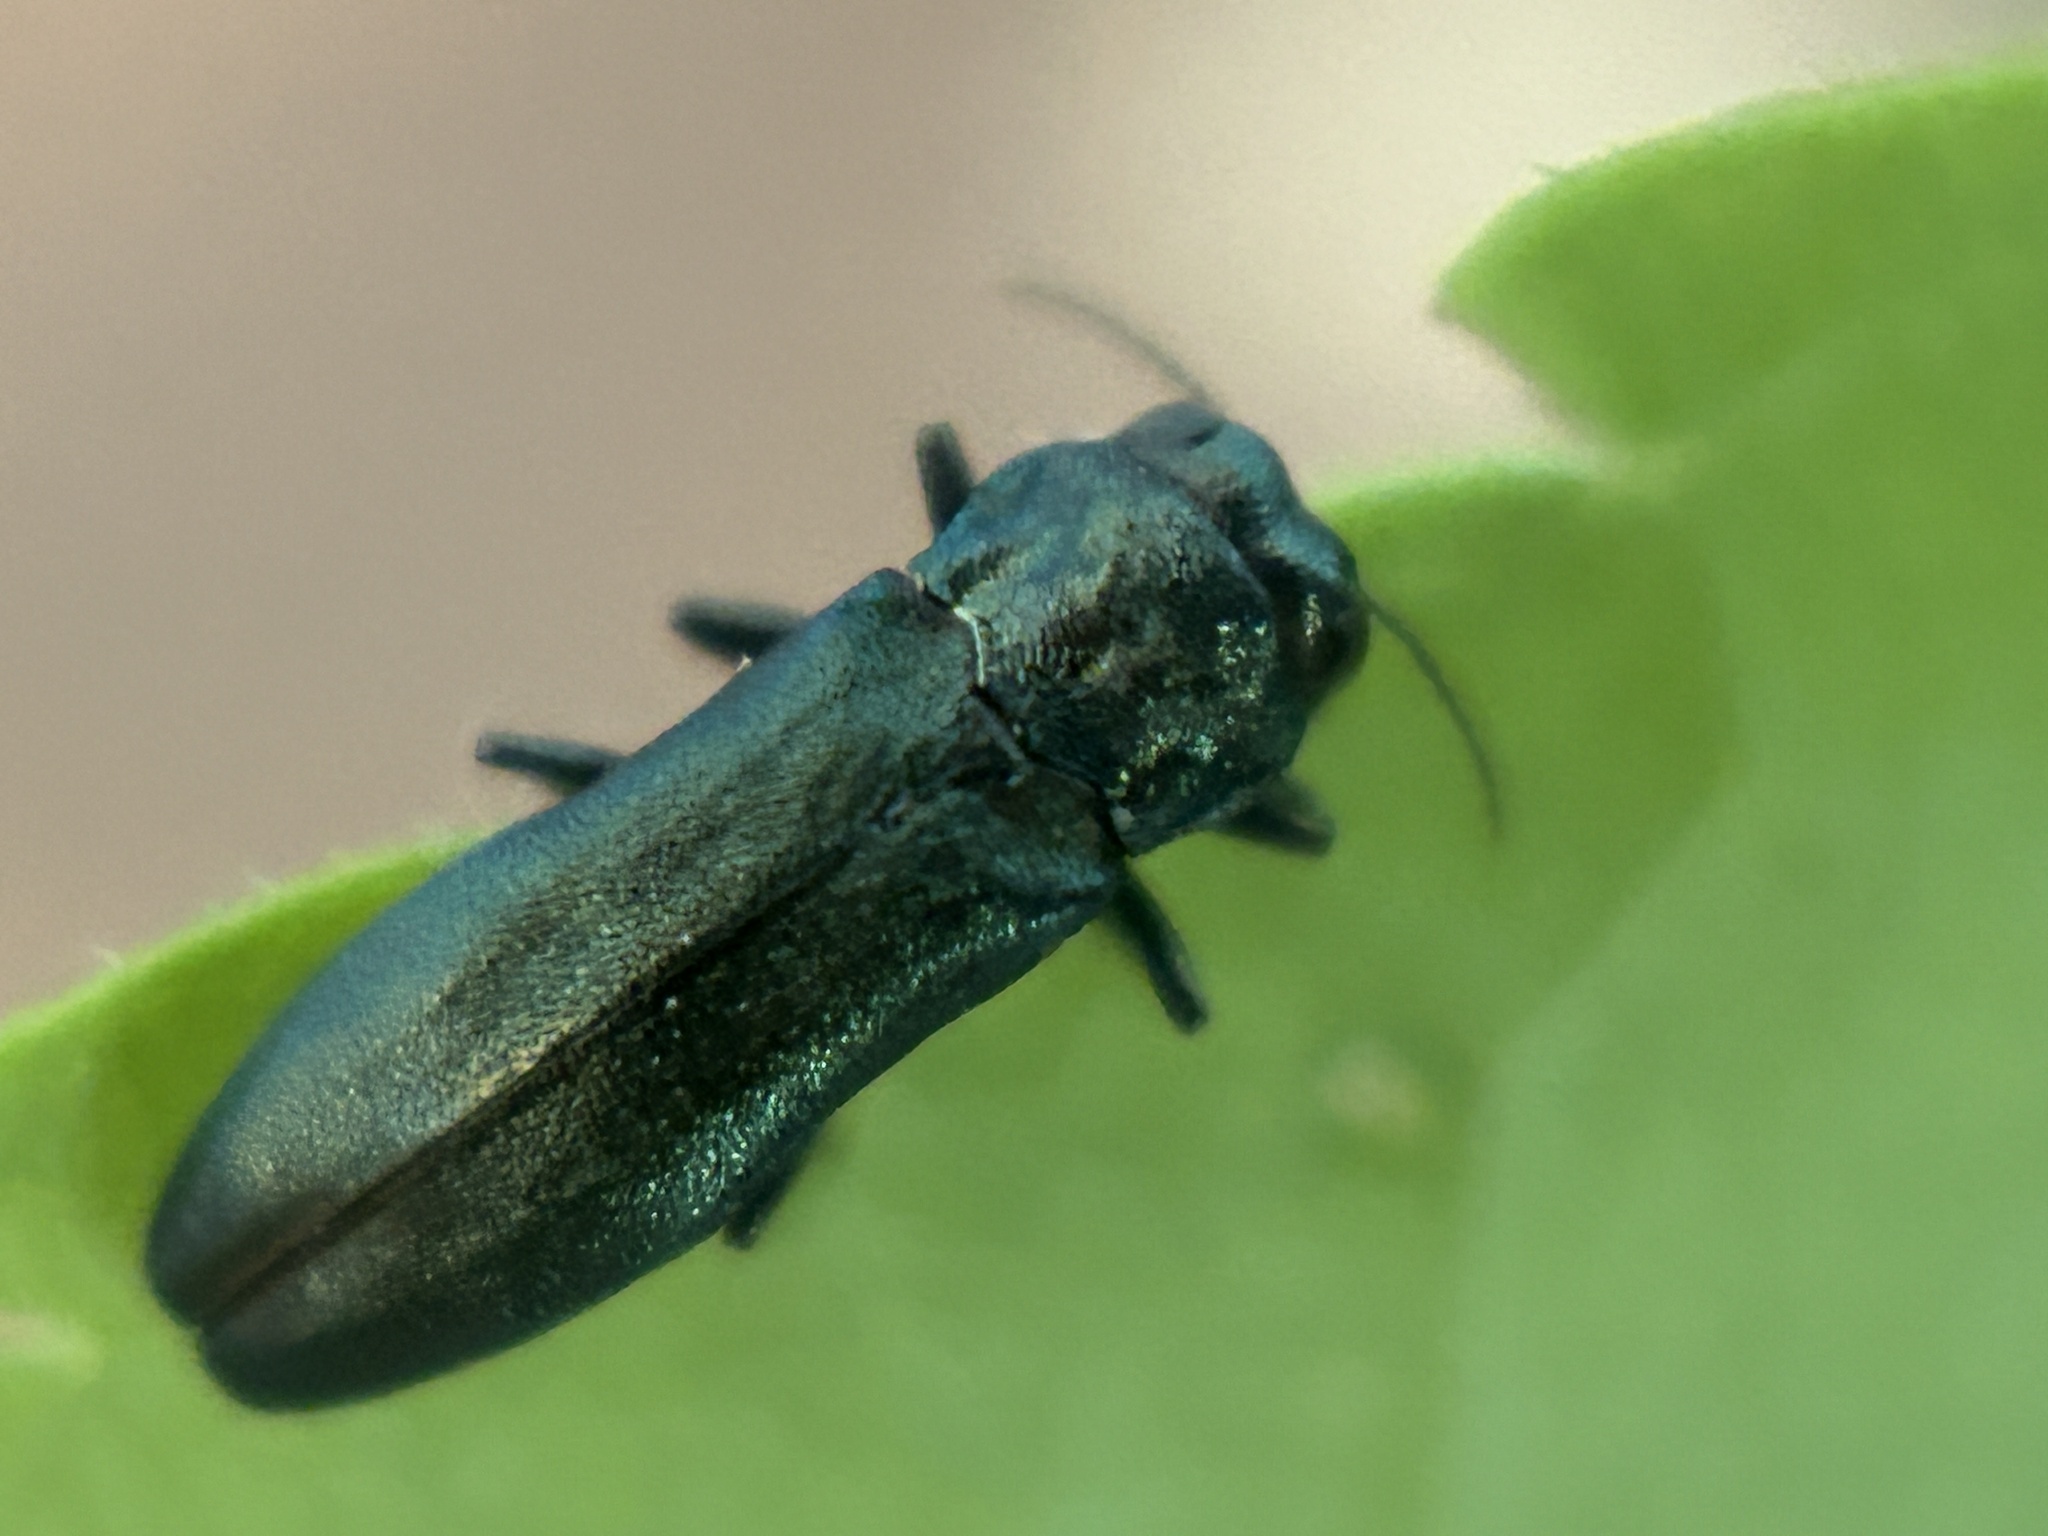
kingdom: Animalia
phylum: Arthropoda
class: Insecta
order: Coleoptera
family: Buprestidae
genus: Agrilus
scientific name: Agrilus cyanescens
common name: Bluish borer beetle
